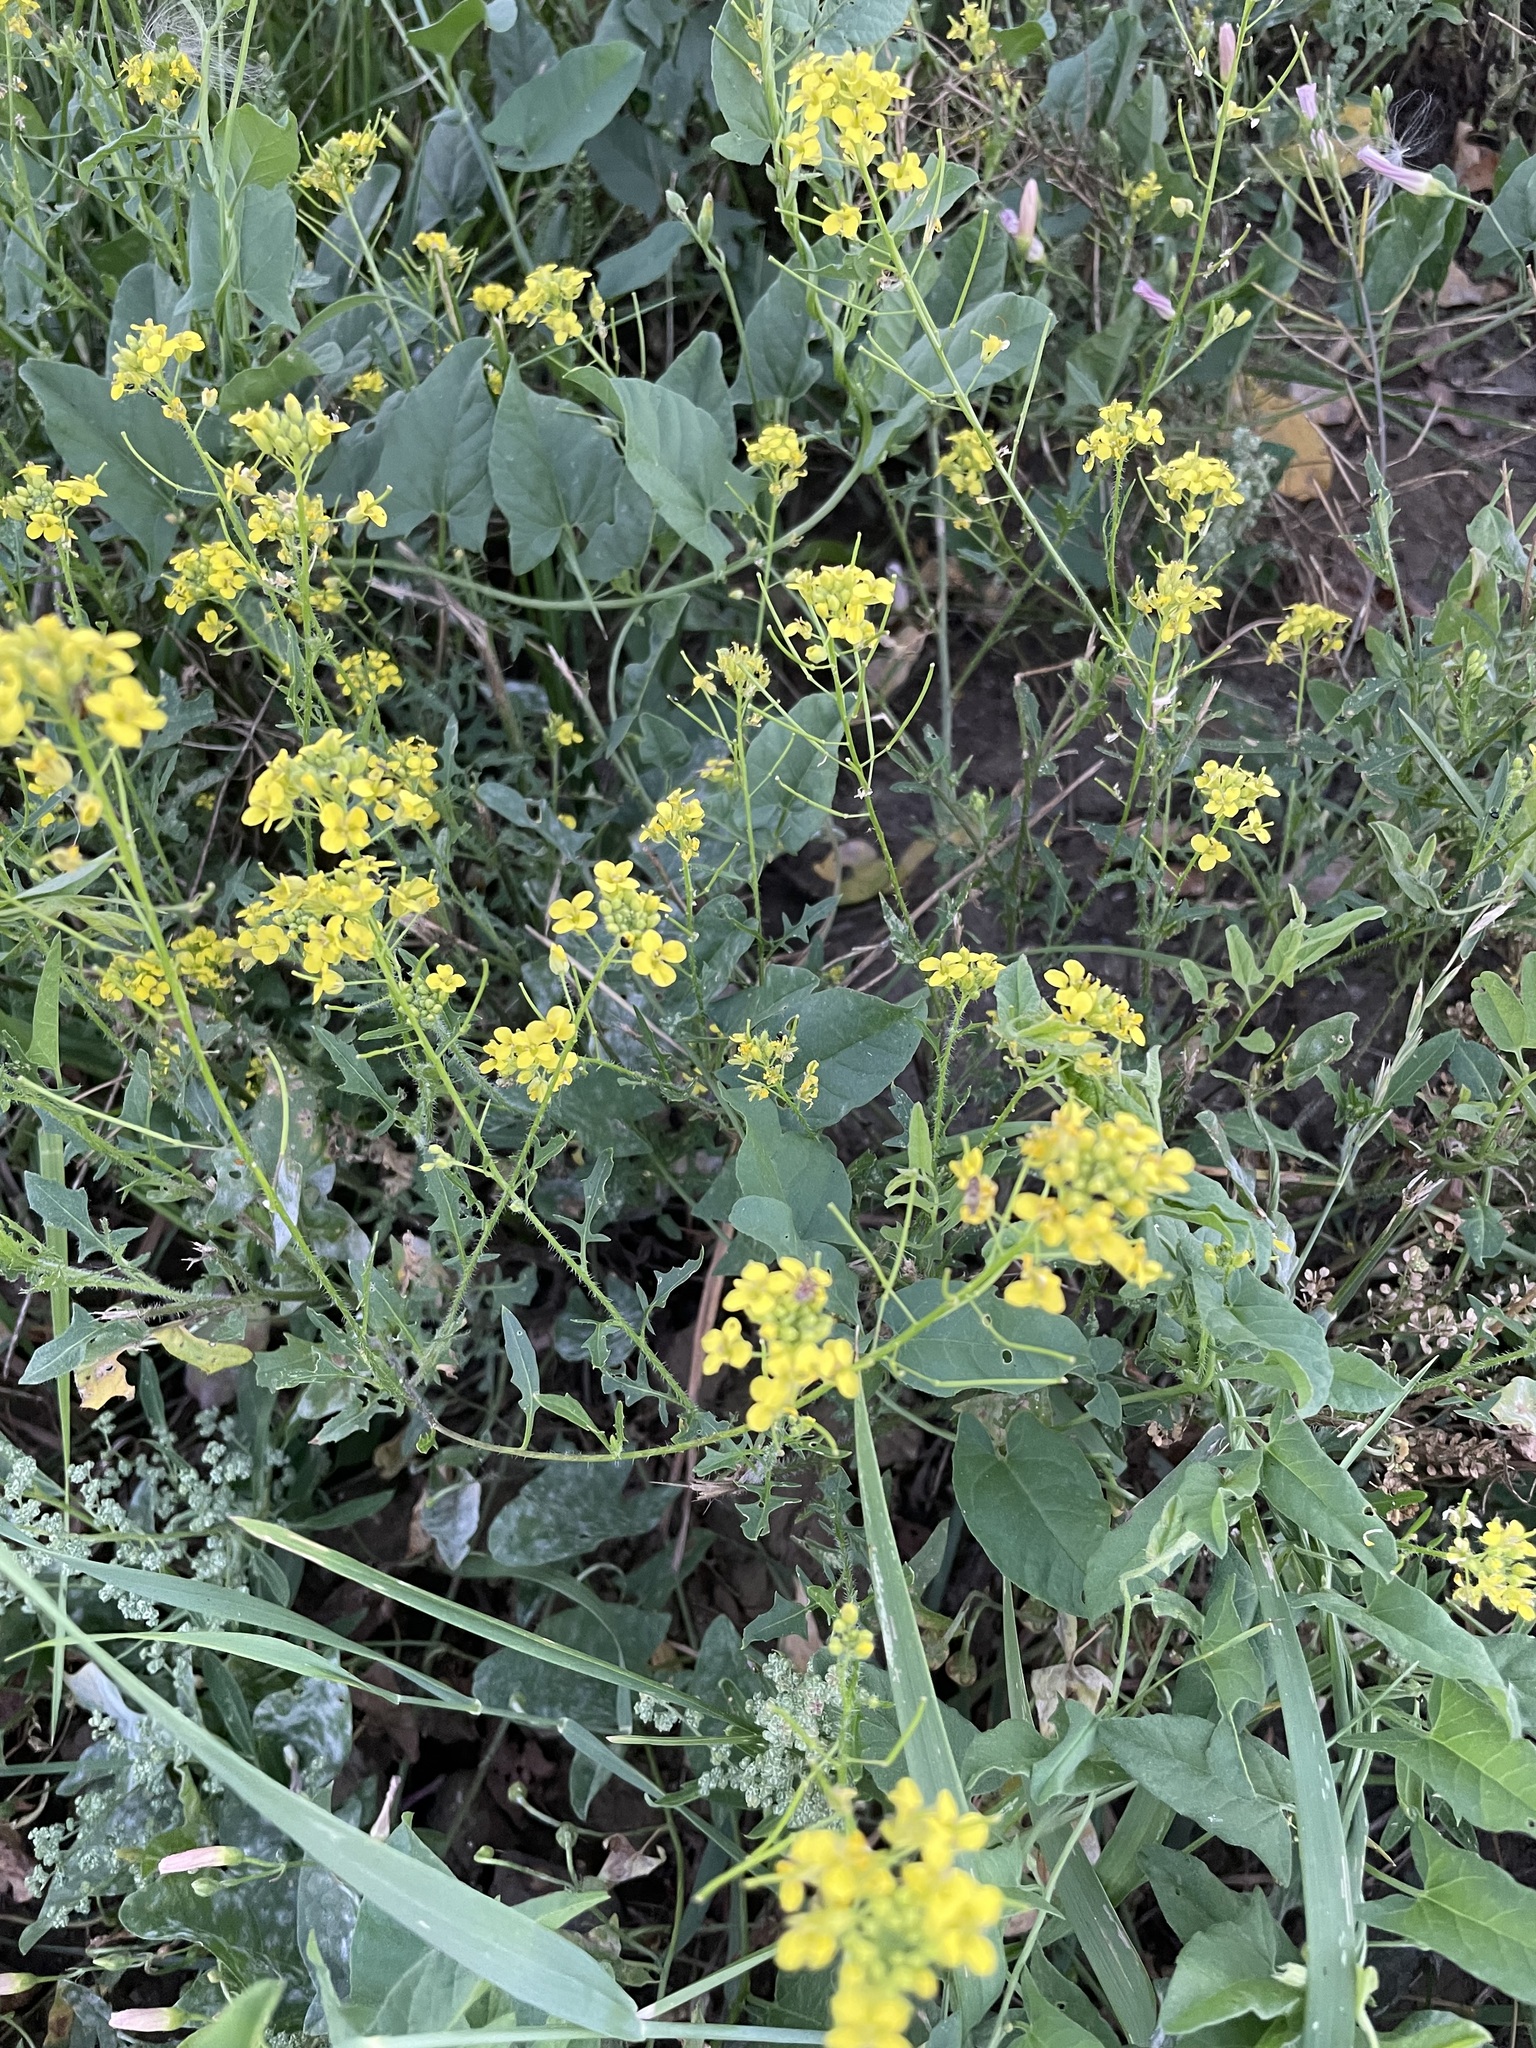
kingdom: Plantae
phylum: Tracheophyta
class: Magnoliopsida
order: Brassicales
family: Brassicaceae
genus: Sisymbrium
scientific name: Sisymbrium loeselii
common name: False london-rocket
